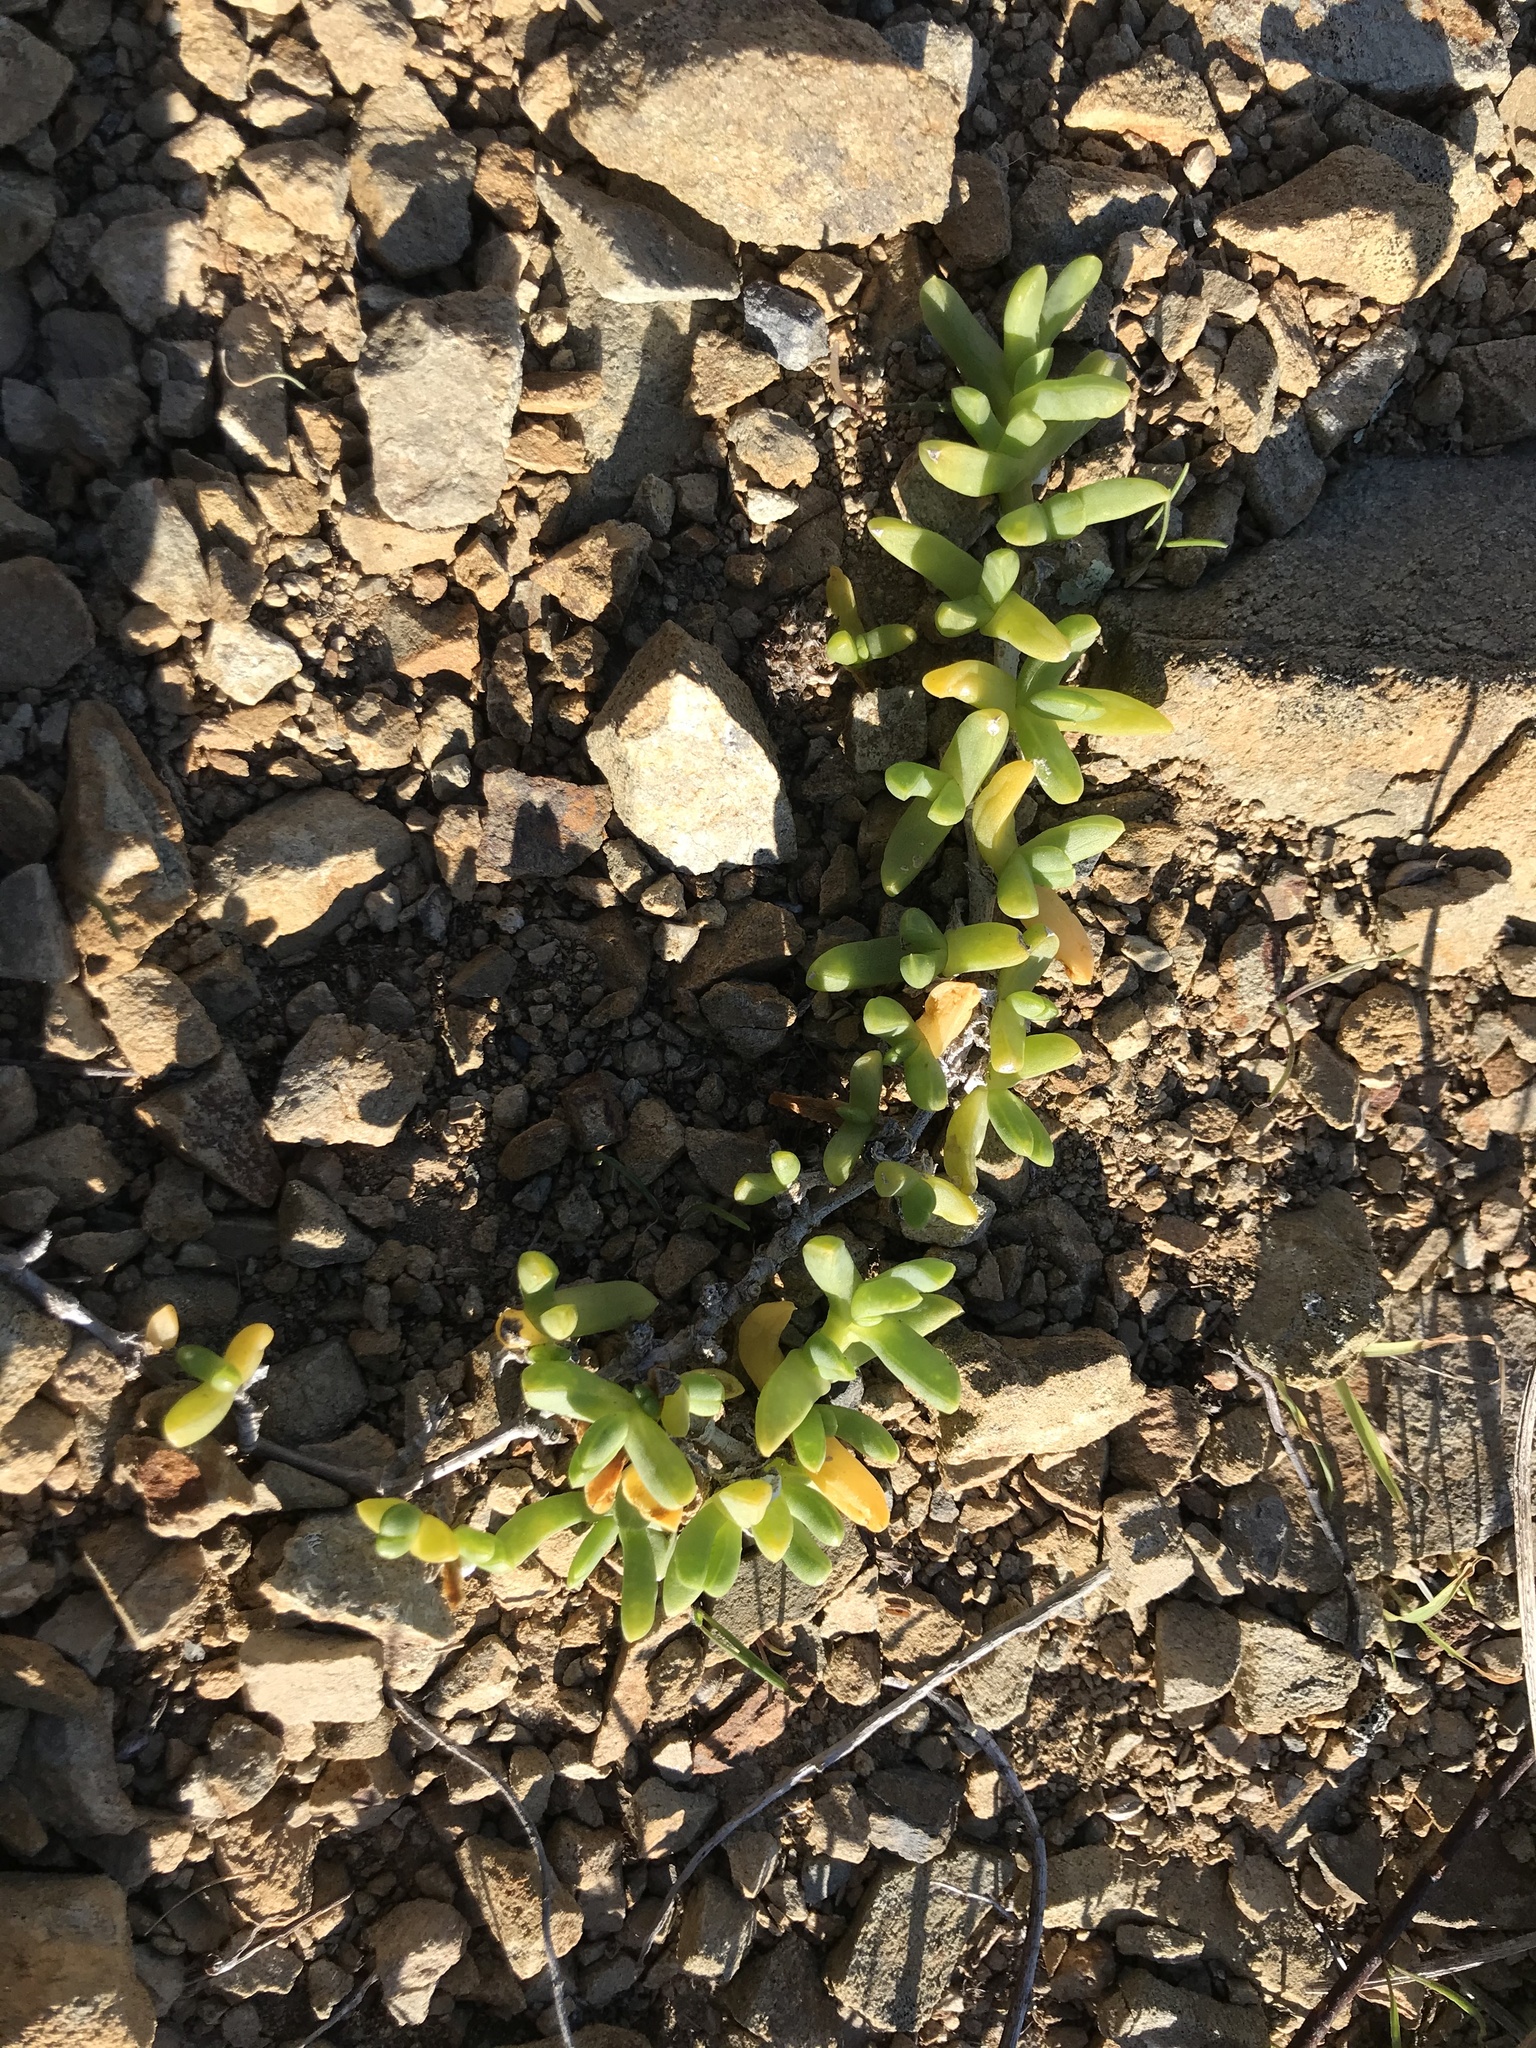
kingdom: Plantae
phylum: Tracheophyta
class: Magnoliopsida
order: Caryophyllales
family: Aizoaceae
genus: Disphyma
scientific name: Disphyma australe
